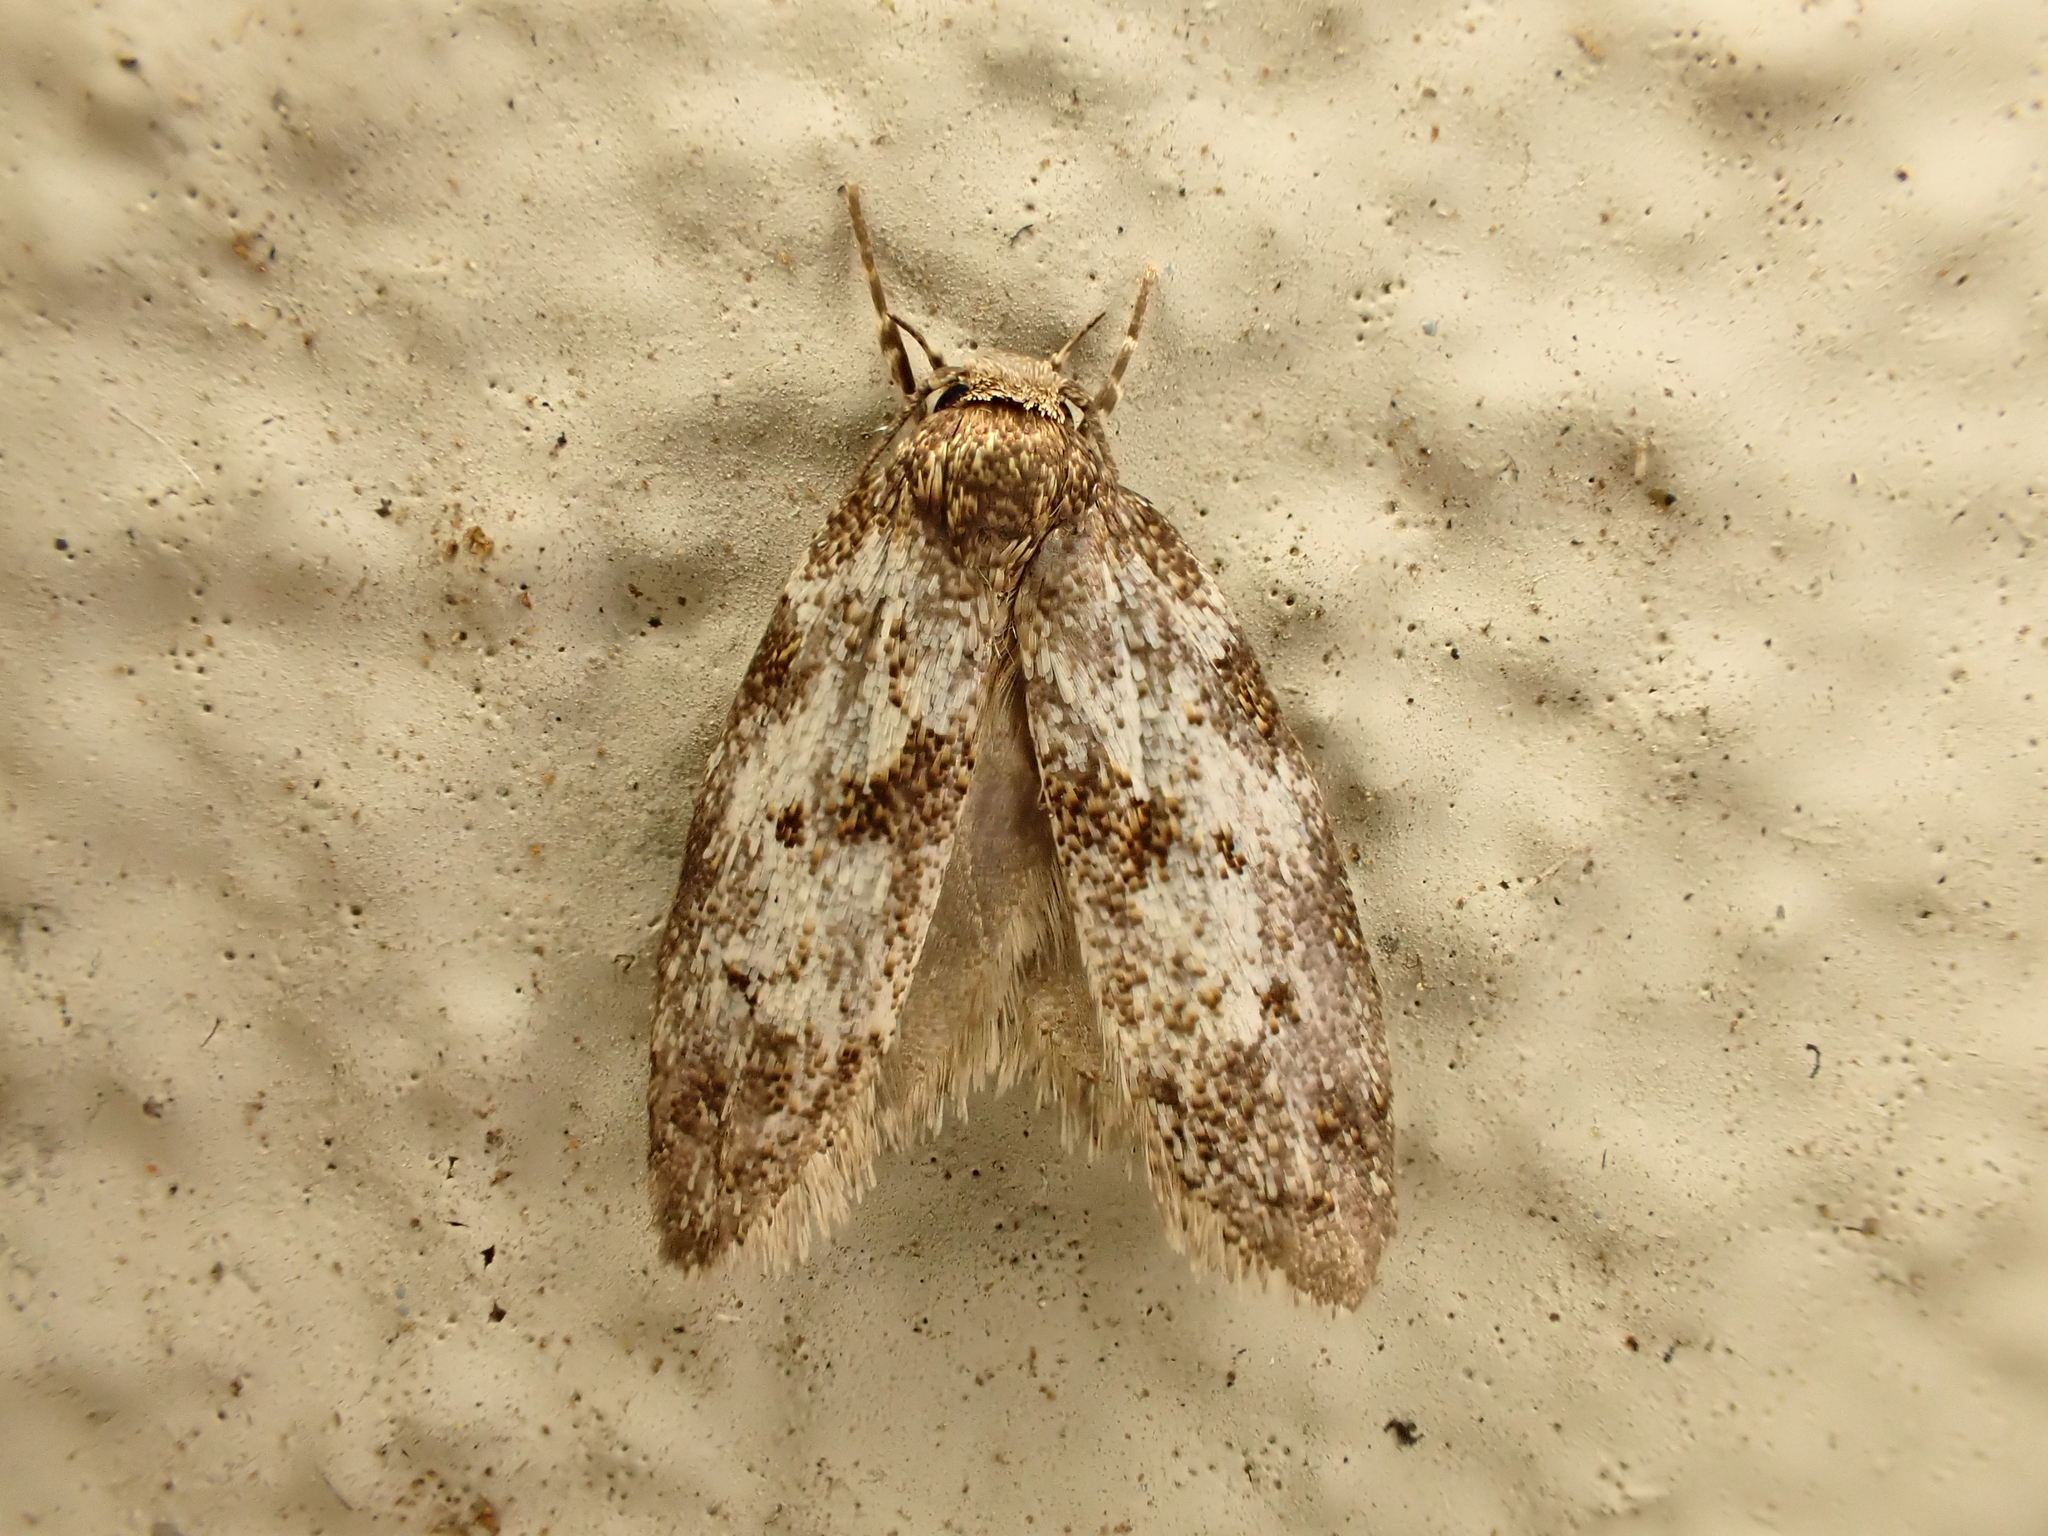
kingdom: Animalia
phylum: Arthropoda
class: Insecta
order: Lepidoptera
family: Oecophoridae
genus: Tingena
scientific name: Tingena clarkei
